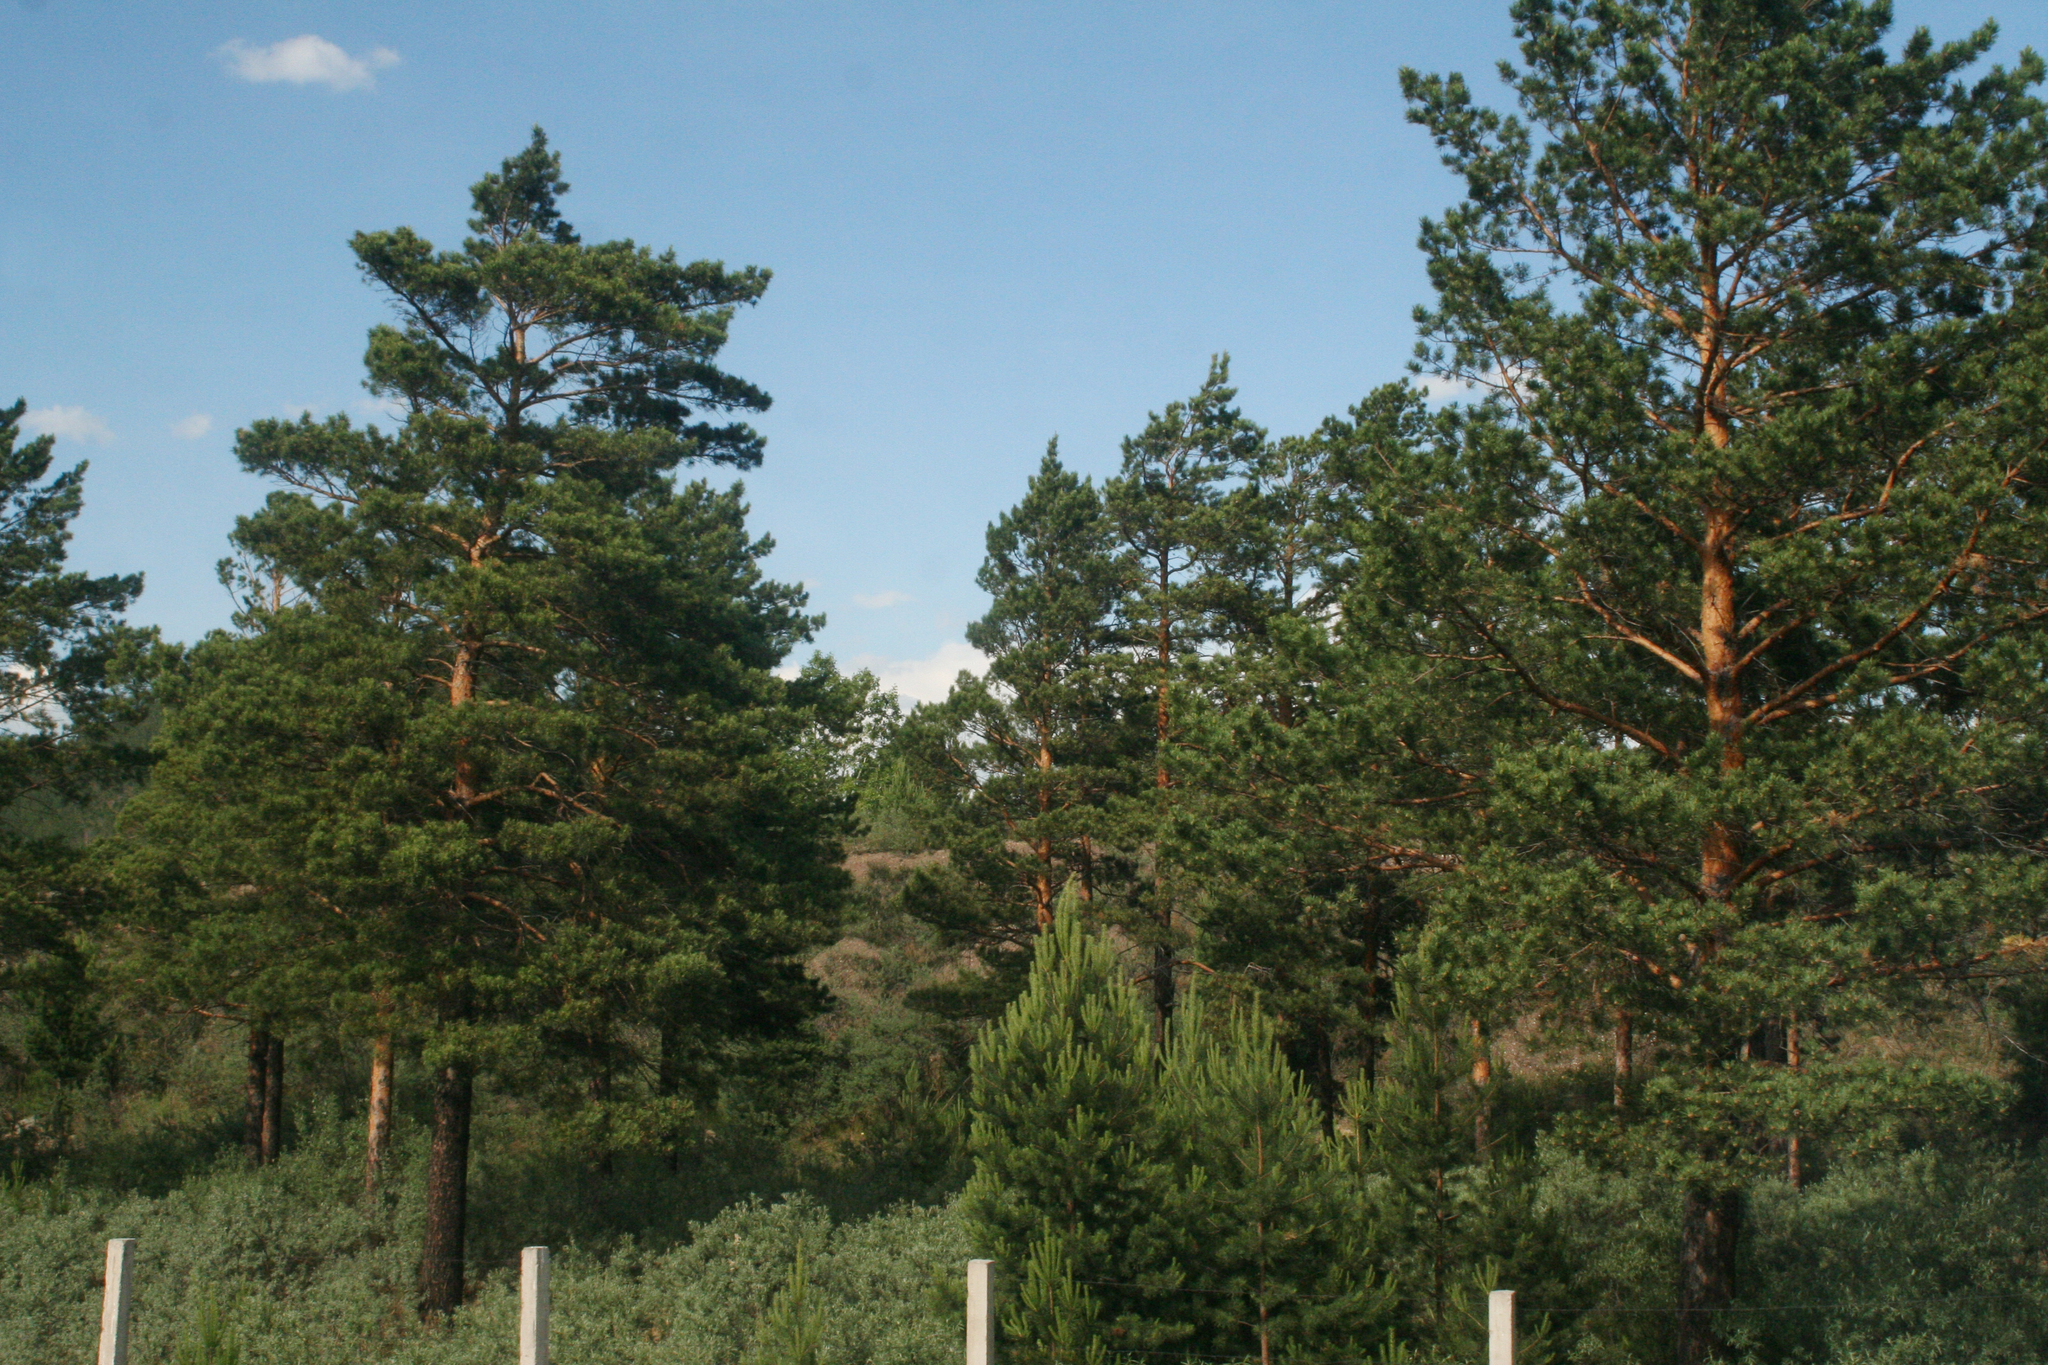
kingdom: Plantae
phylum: Tracheophyta
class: Pinopsida
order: Pinales
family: Pinaceae
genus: Pinus
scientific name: Pinus sylvestris
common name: Scots pine
